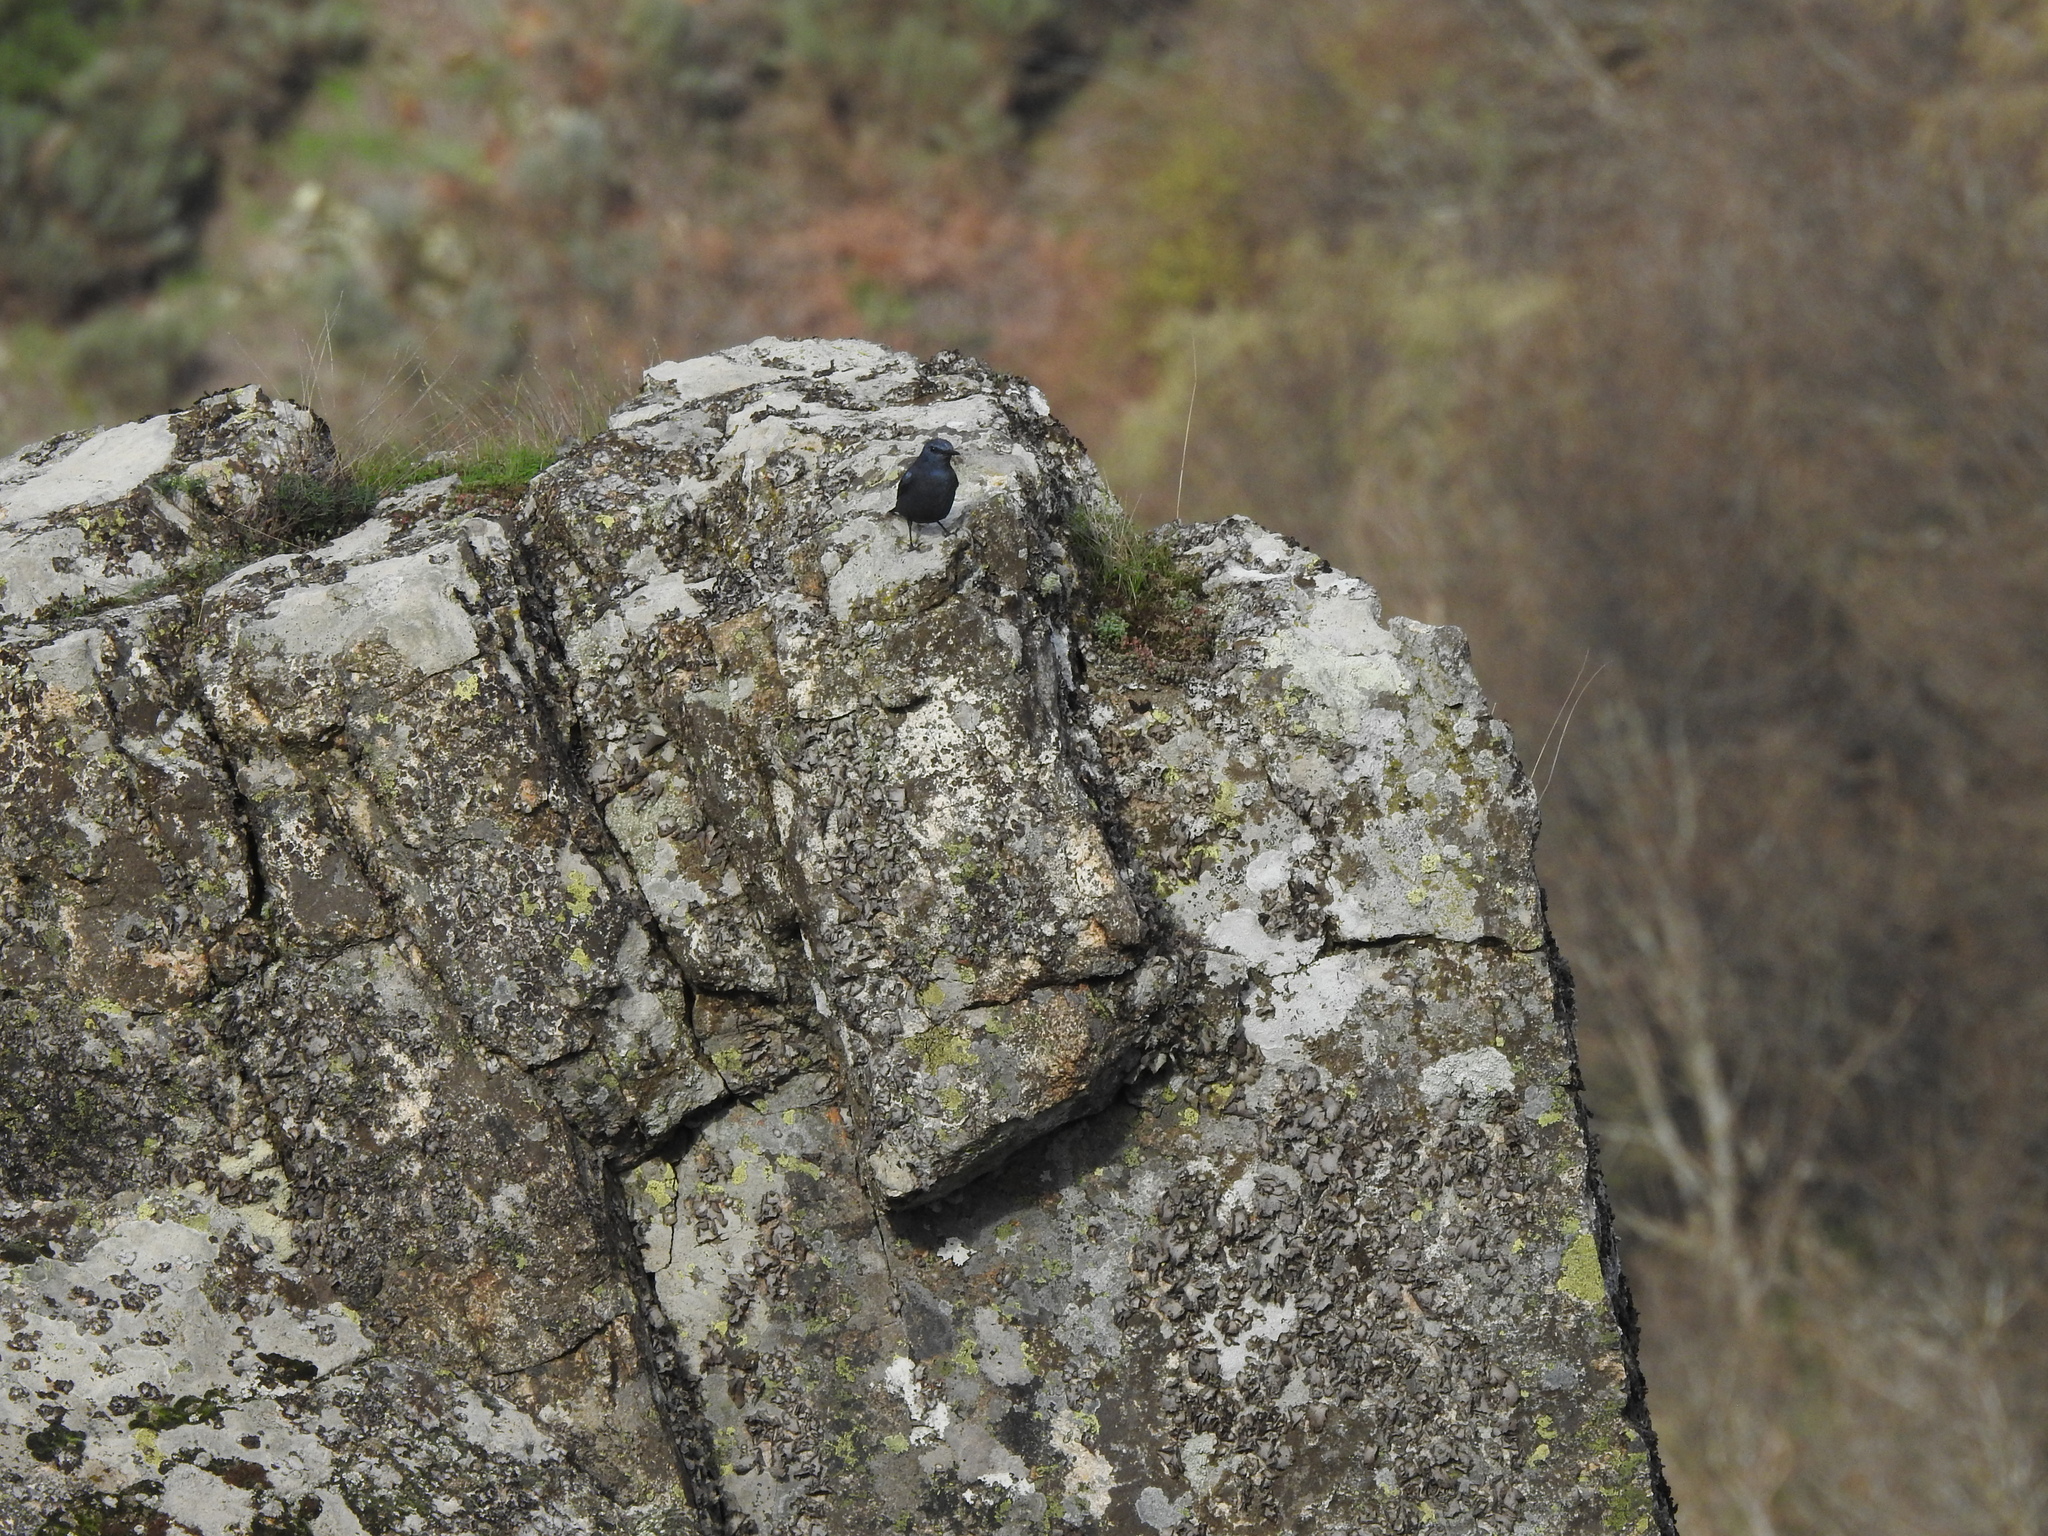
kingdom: Animalia
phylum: Chordata
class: Aves
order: Passeriformes
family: Muscicapidae
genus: Monticola
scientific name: Monticola solitarius
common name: Blue rock thrush
